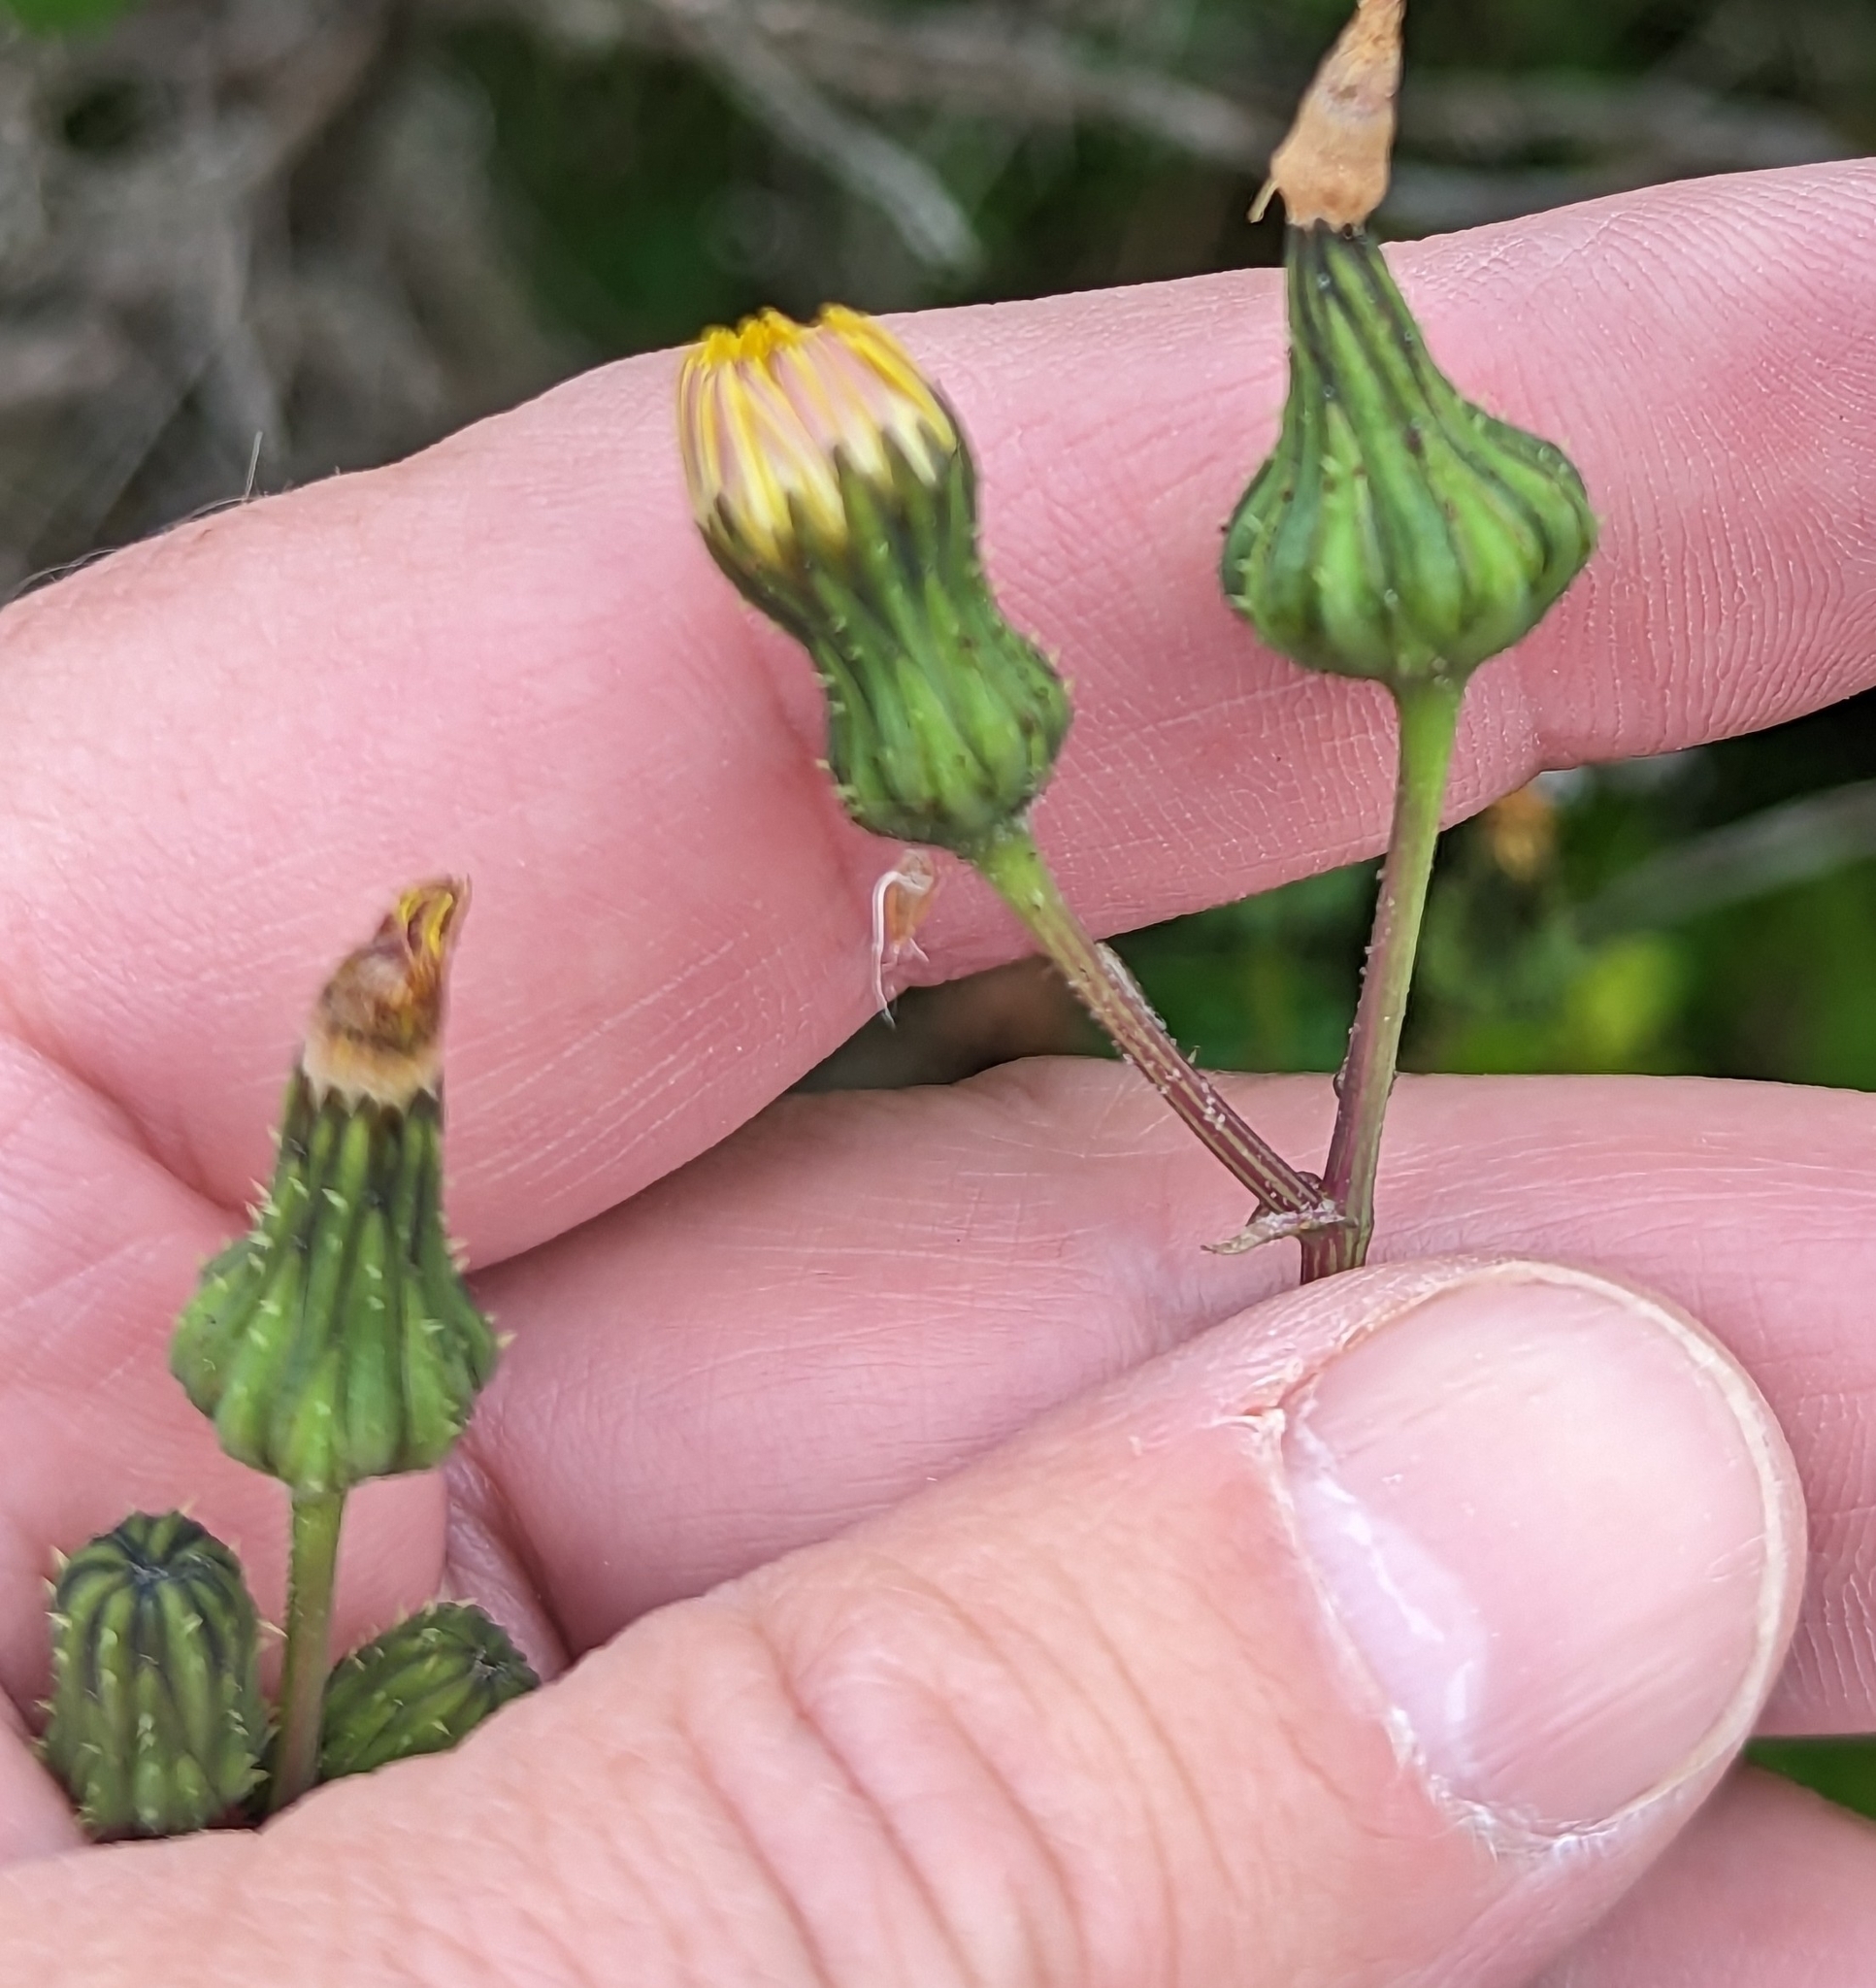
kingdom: Plantae
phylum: Tracheophyta
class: Magnoliopsida
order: Asterales
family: Asteraceae
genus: Sonchus
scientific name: Sonchus asper
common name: Prickly sow-thistle
